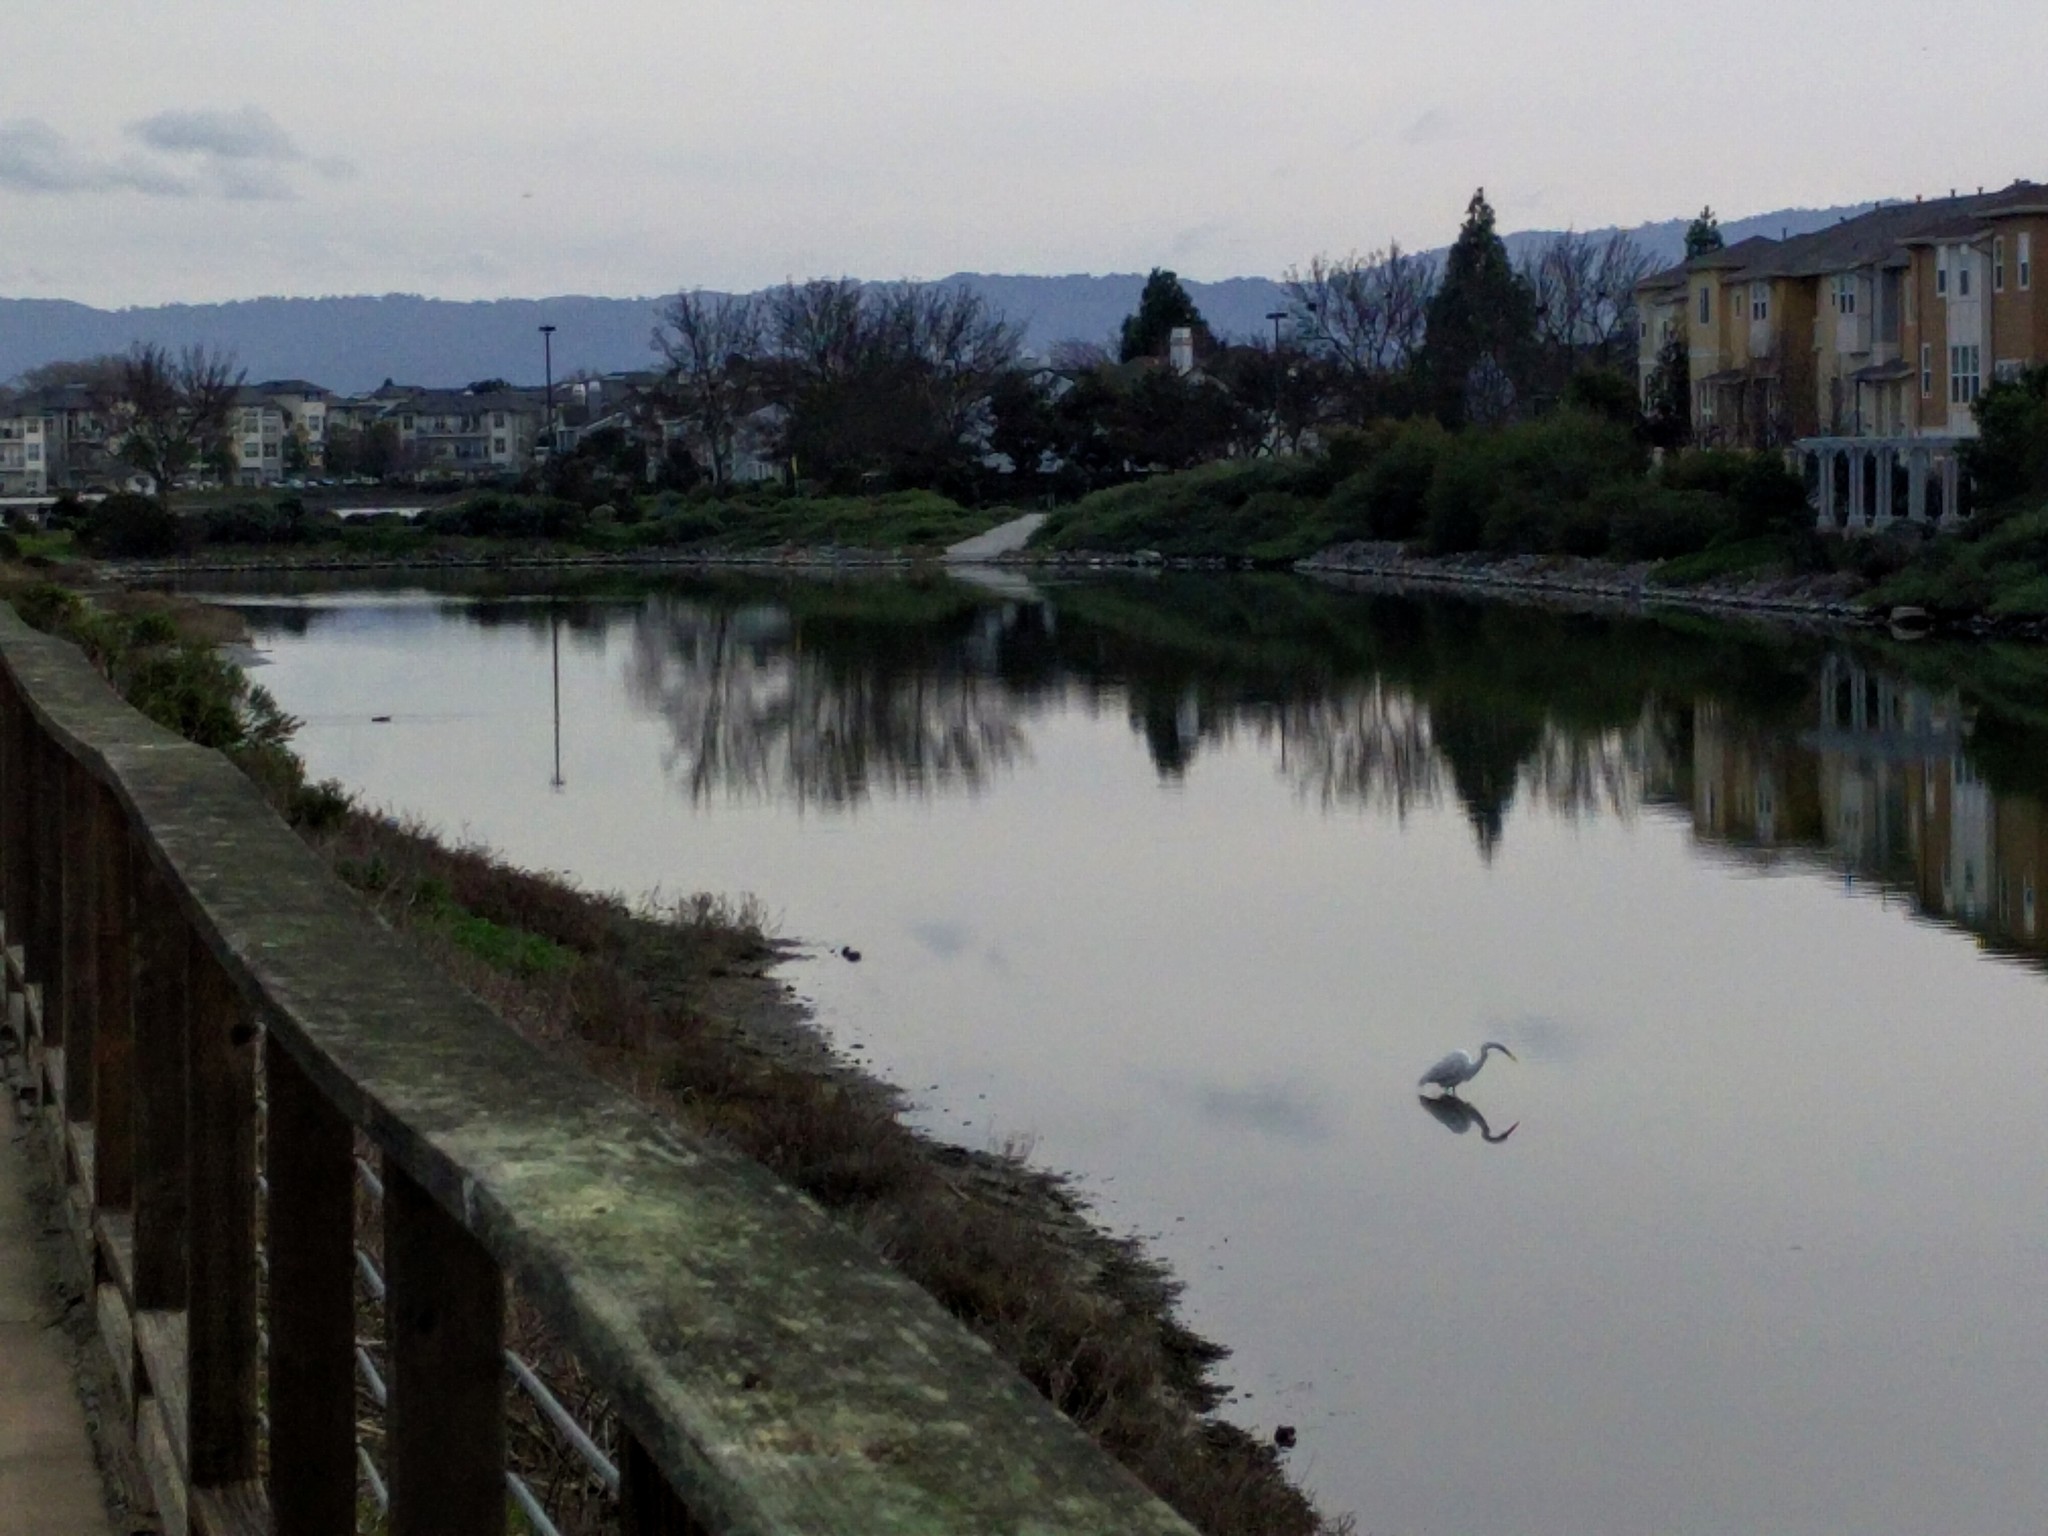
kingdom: Animalia
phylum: Chordata
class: Aves
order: Pelecaniformes
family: Ardeidae
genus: Ardea
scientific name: Ardea alba
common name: Great egret
